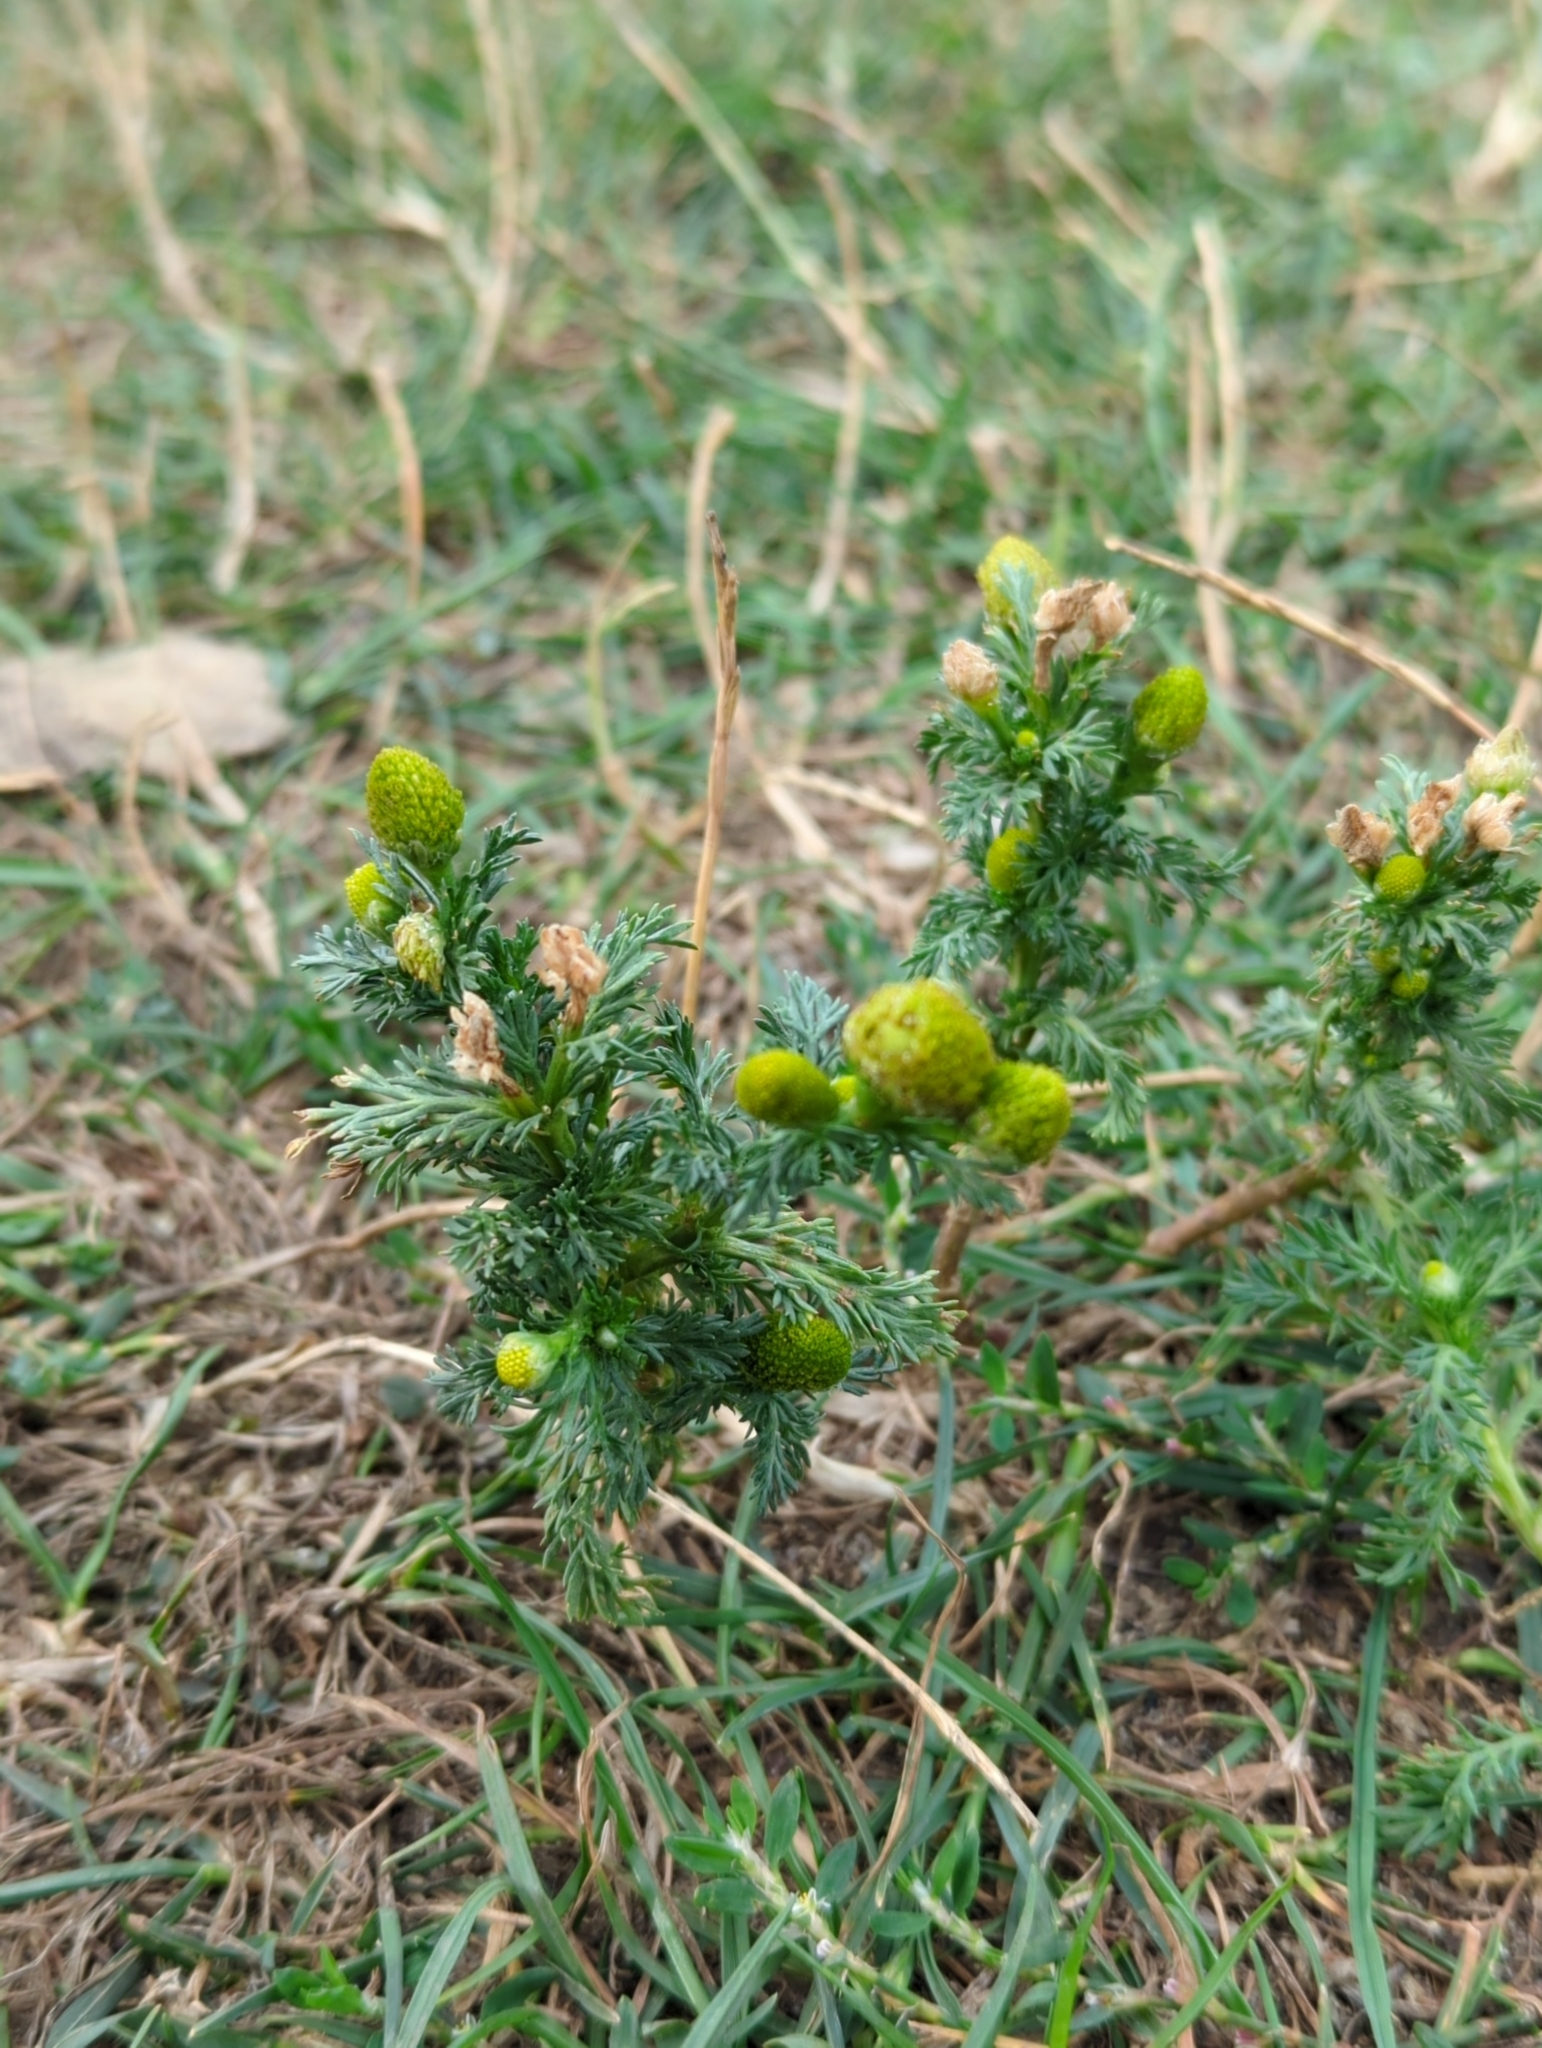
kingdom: Plantae
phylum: Tracheophyta
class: Magnoliopsida
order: Asterales
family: Asteraceae
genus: Matricaria
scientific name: Matricaria discoidea
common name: Disc mayweed
